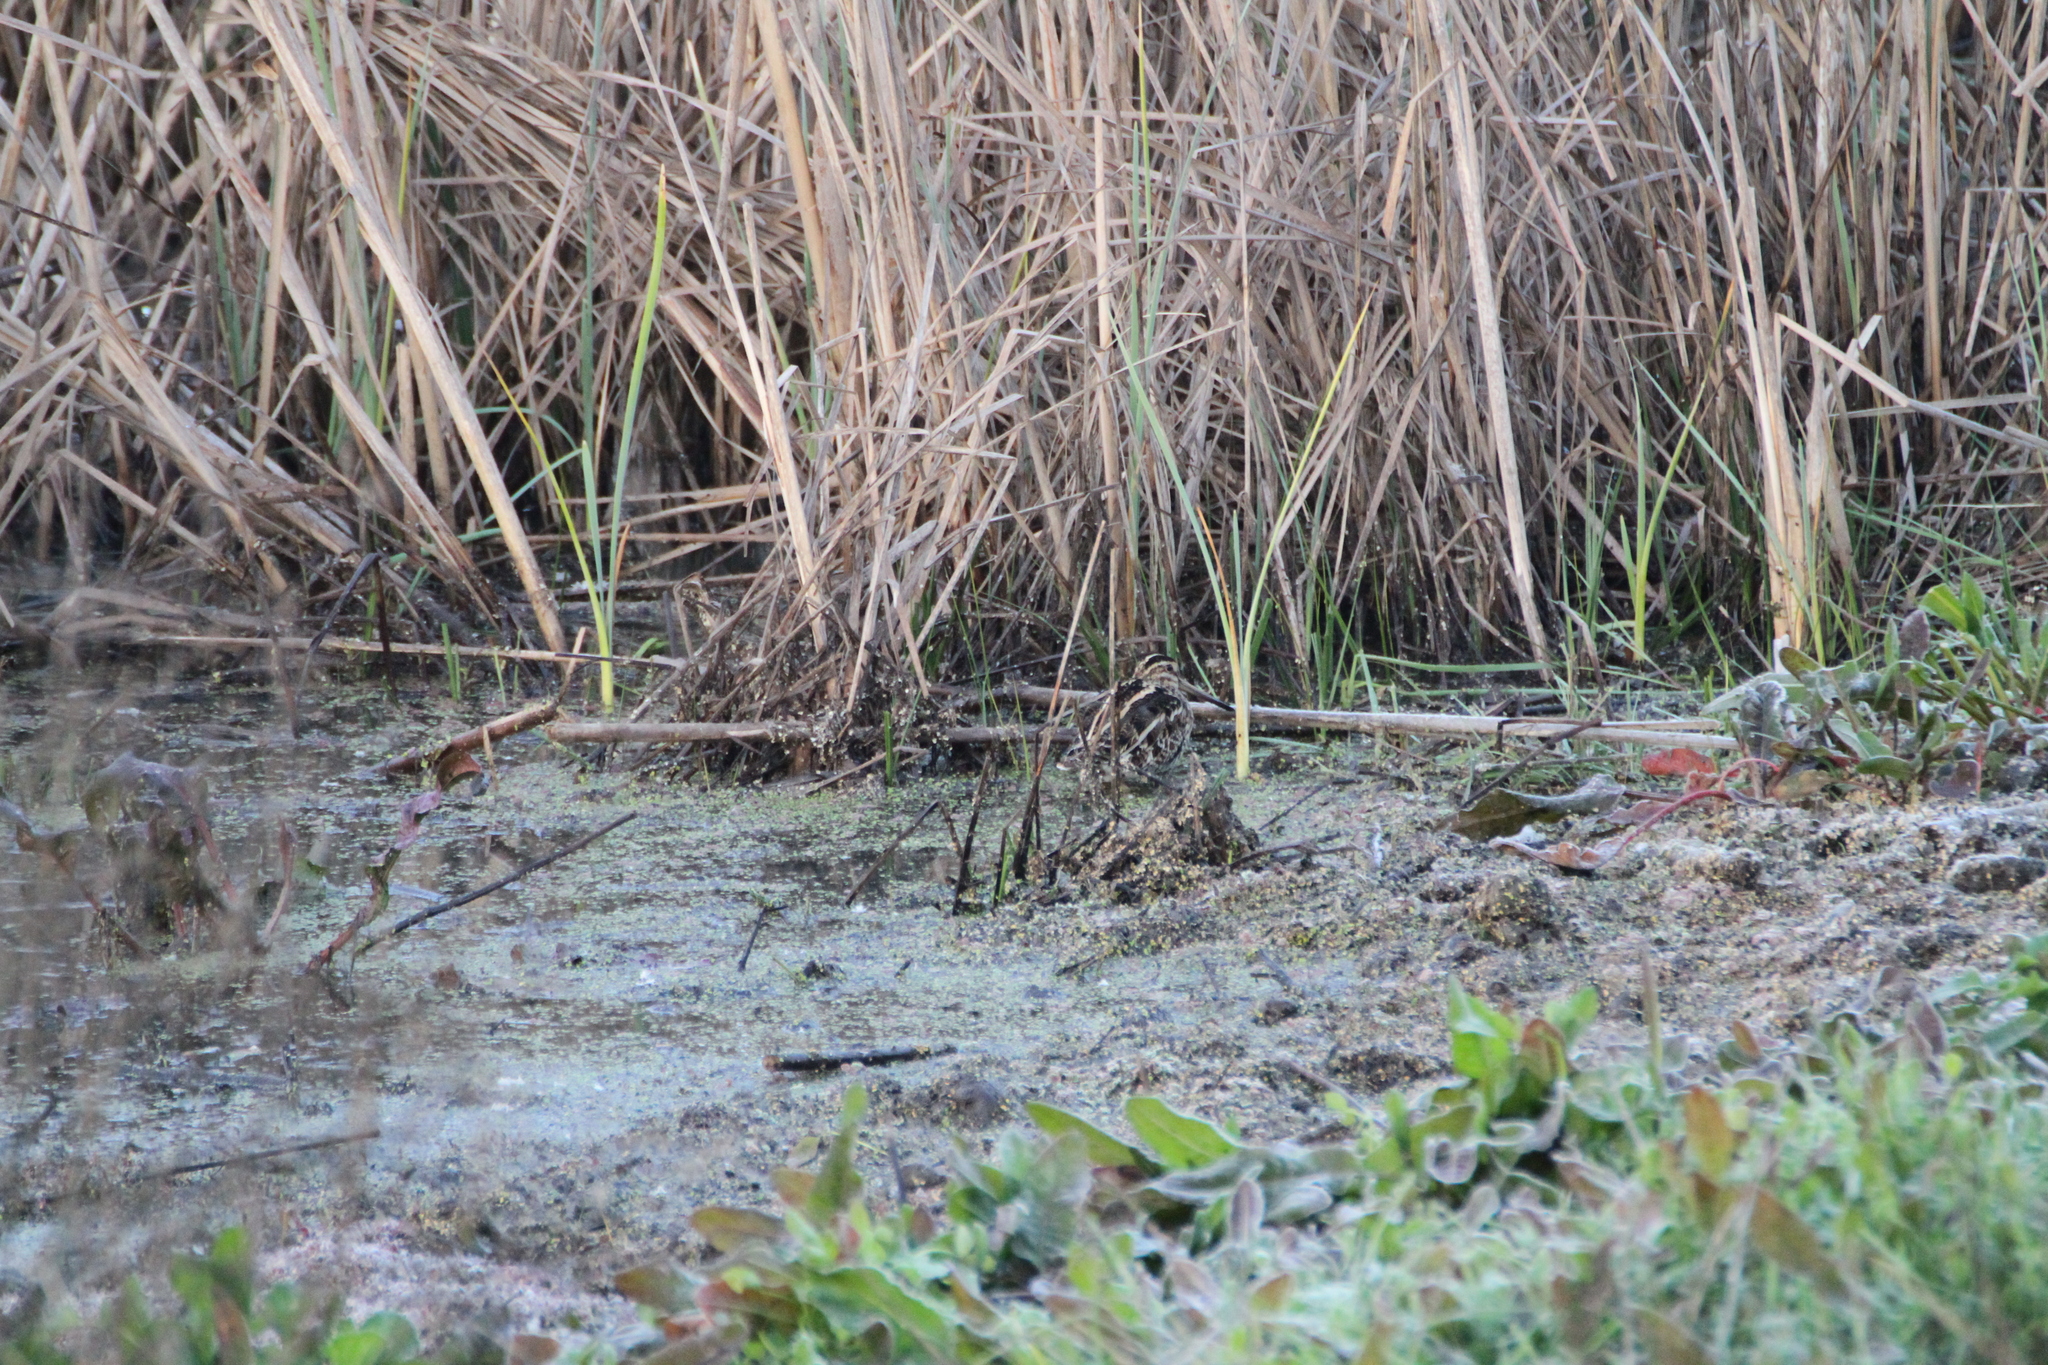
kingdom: Animalia
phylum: Chordata
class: Aves
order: Charadriiformes
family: Scolopacidae
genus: Gallinago
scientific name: Gallinago gallinago
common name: Common snipe
